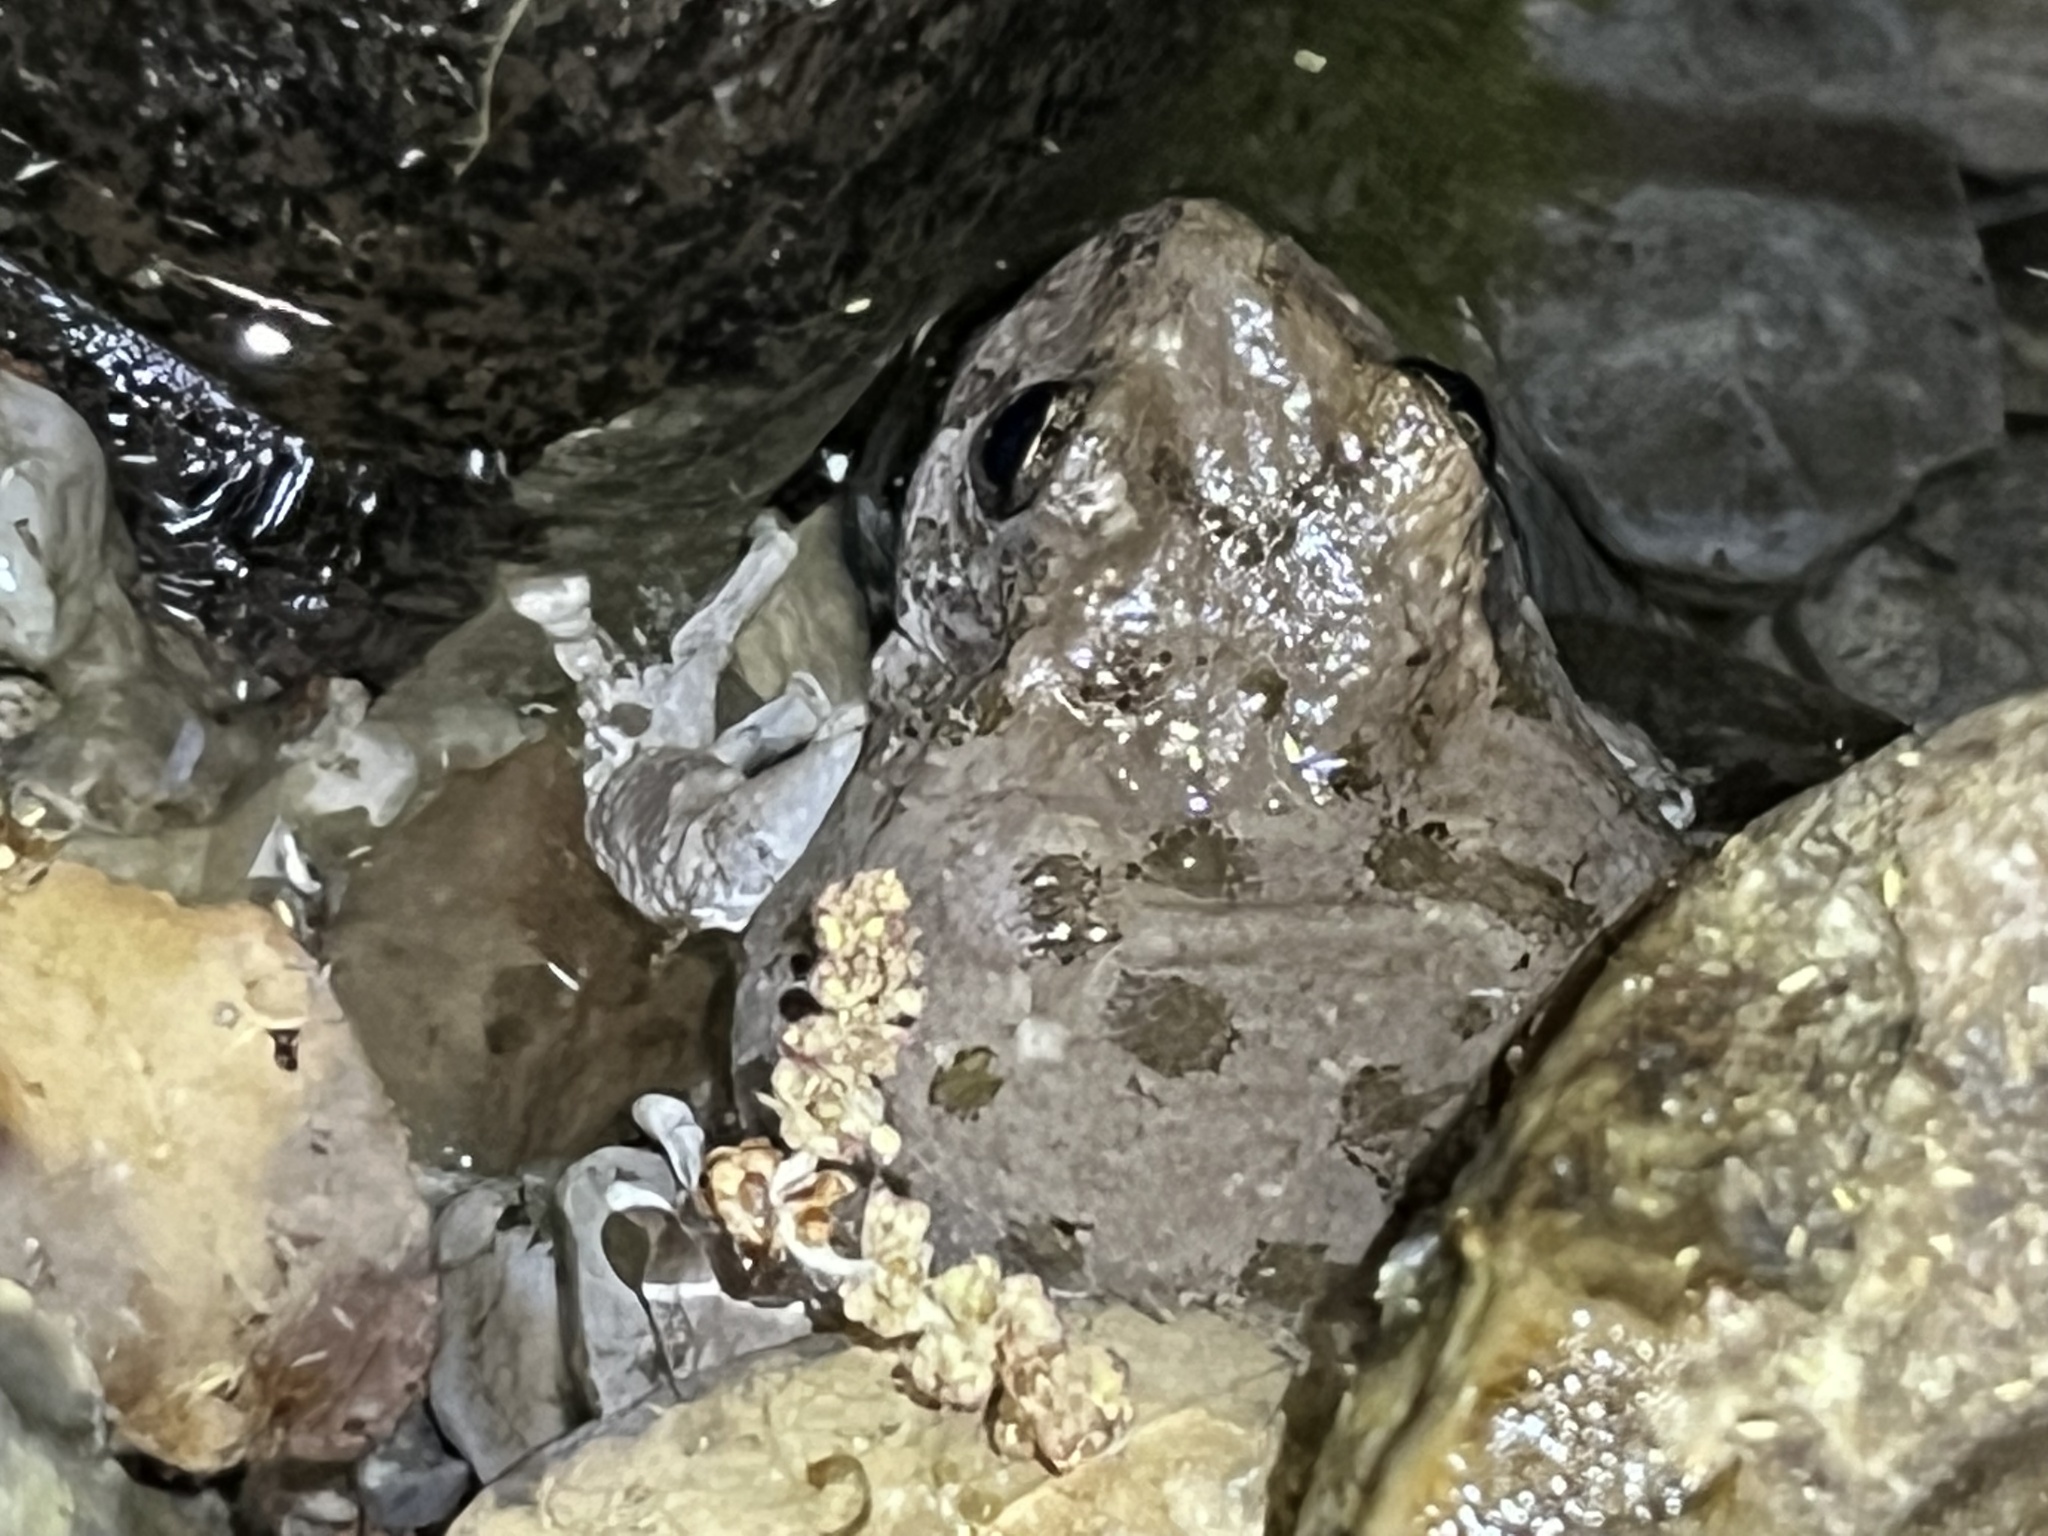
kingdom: Animalia
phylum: Chordata
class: Amphibia
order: Anura
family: Hylidae
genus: Dryophytes
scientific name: Dryophytes arenicolor
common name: Canyon treefrog
